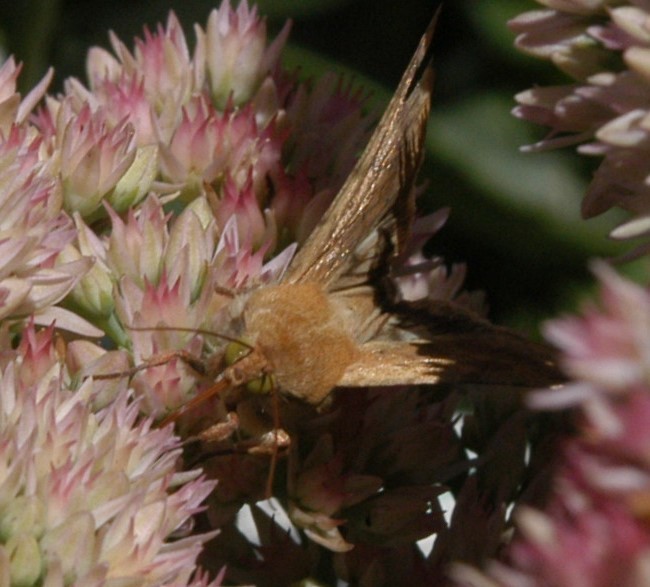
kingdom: Animalia
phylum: Arthropoda
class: Insecta
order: Lepidoptera
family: Noctuidae
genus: Helicoverpa
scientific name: Helicoverpa zea
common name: Bollworm
